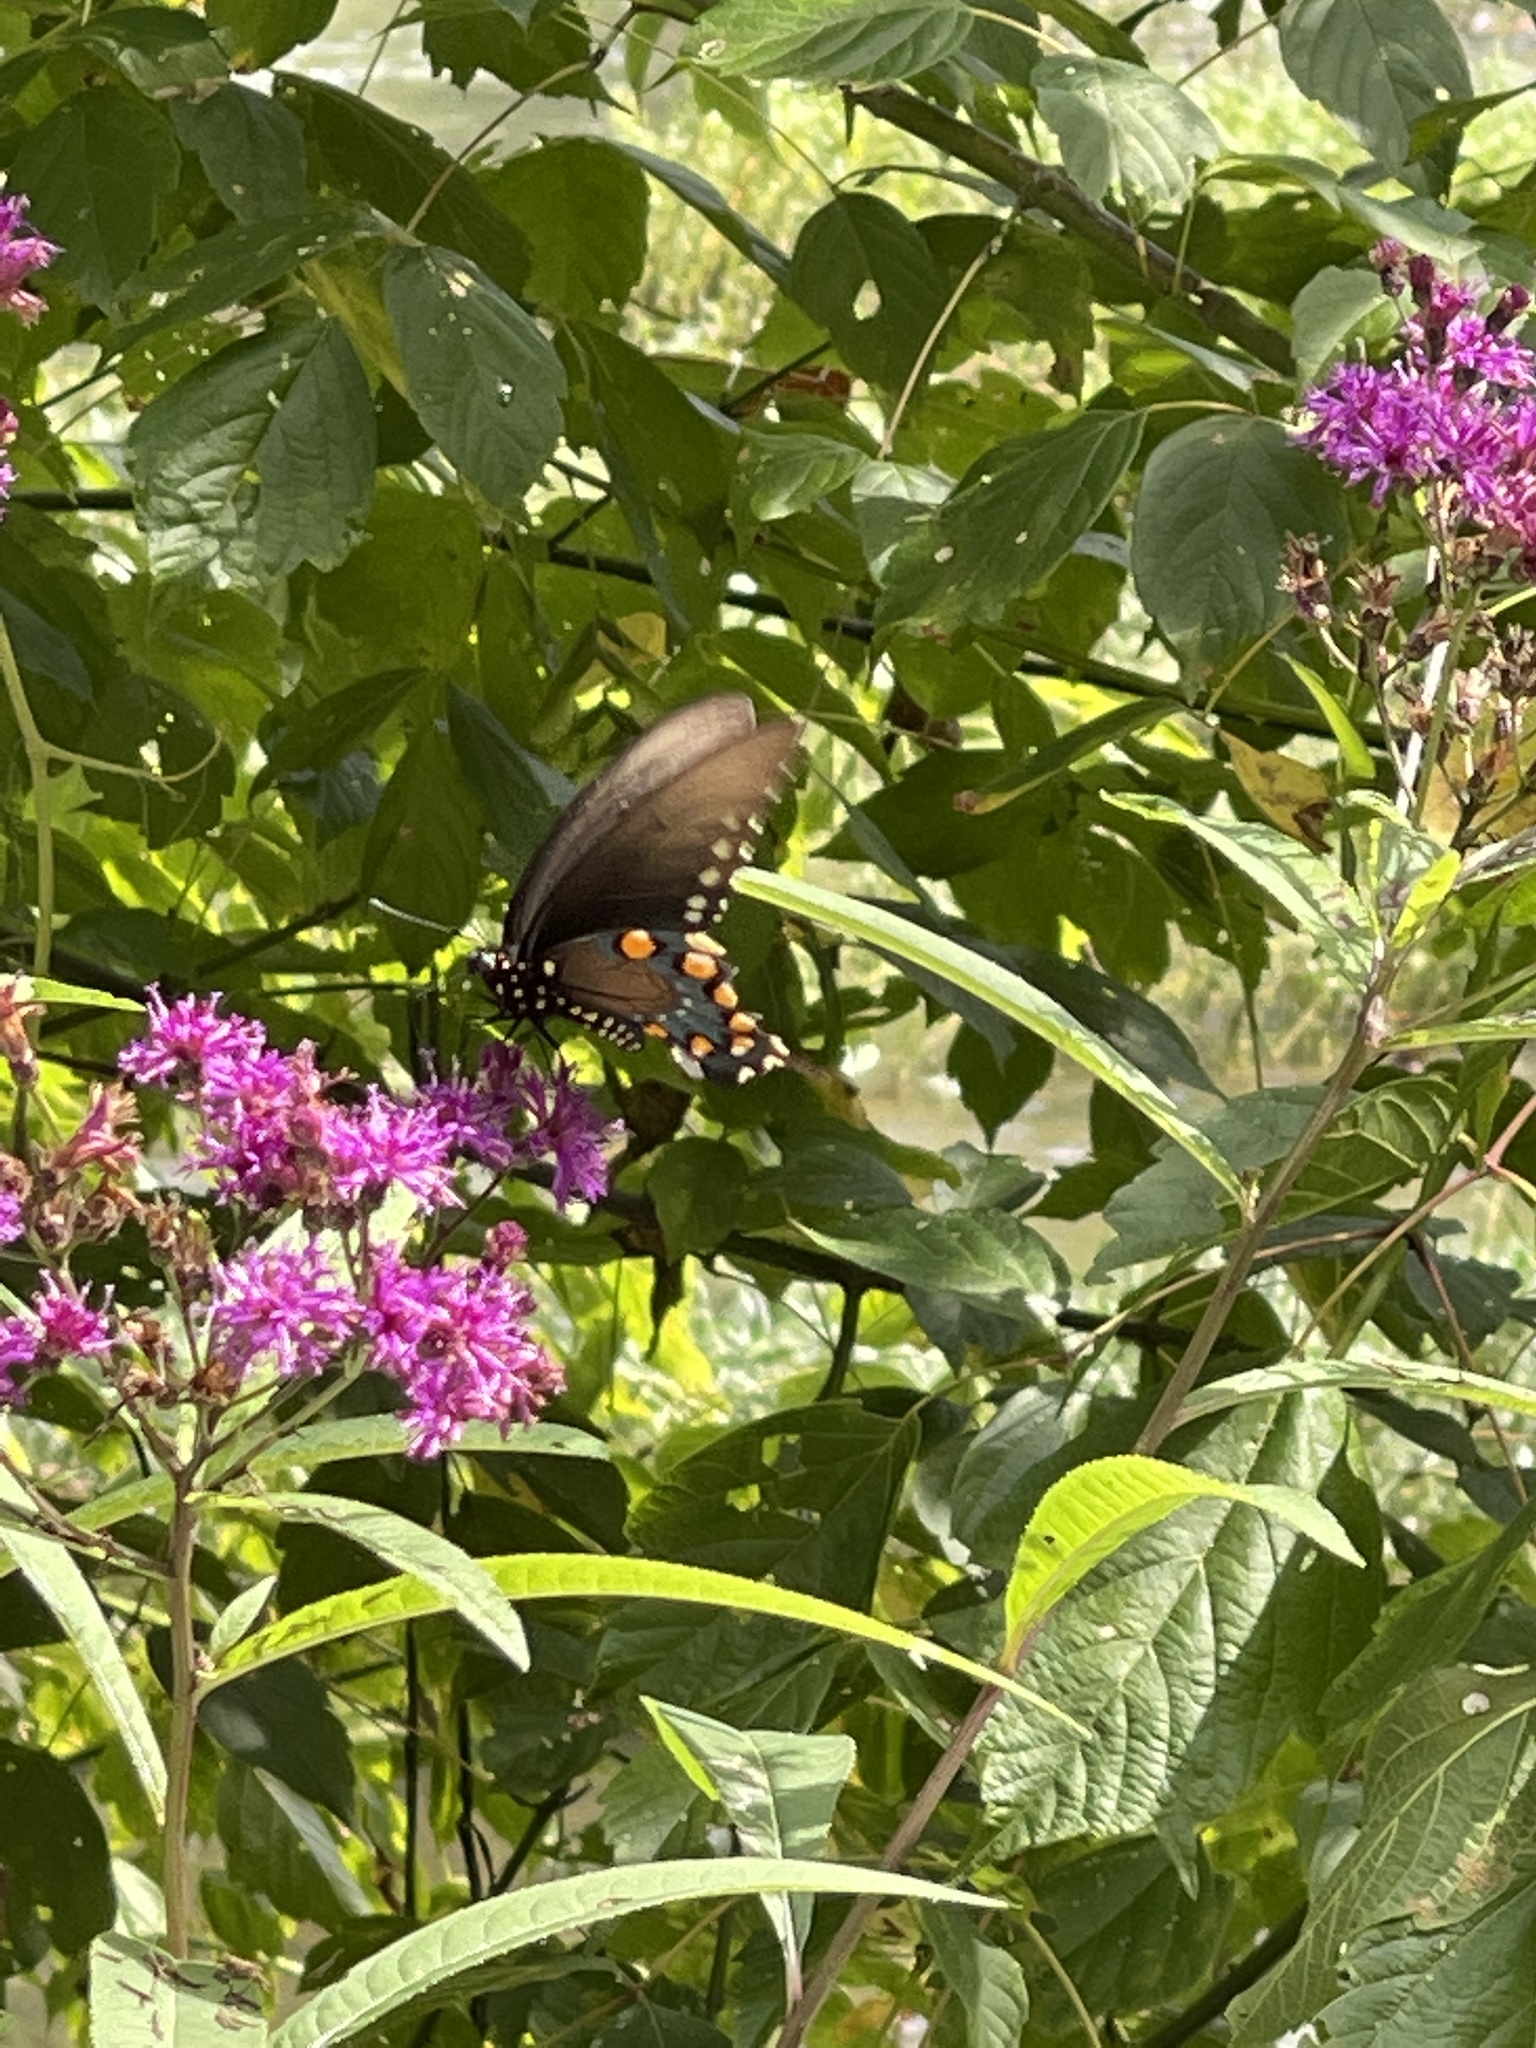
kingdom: Animalia
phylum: Arthropoda
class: Insecta
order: Lepidoptera
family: Papilionidae
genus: Battus
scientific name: Battus philenor
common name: Pipevine swallowtail
